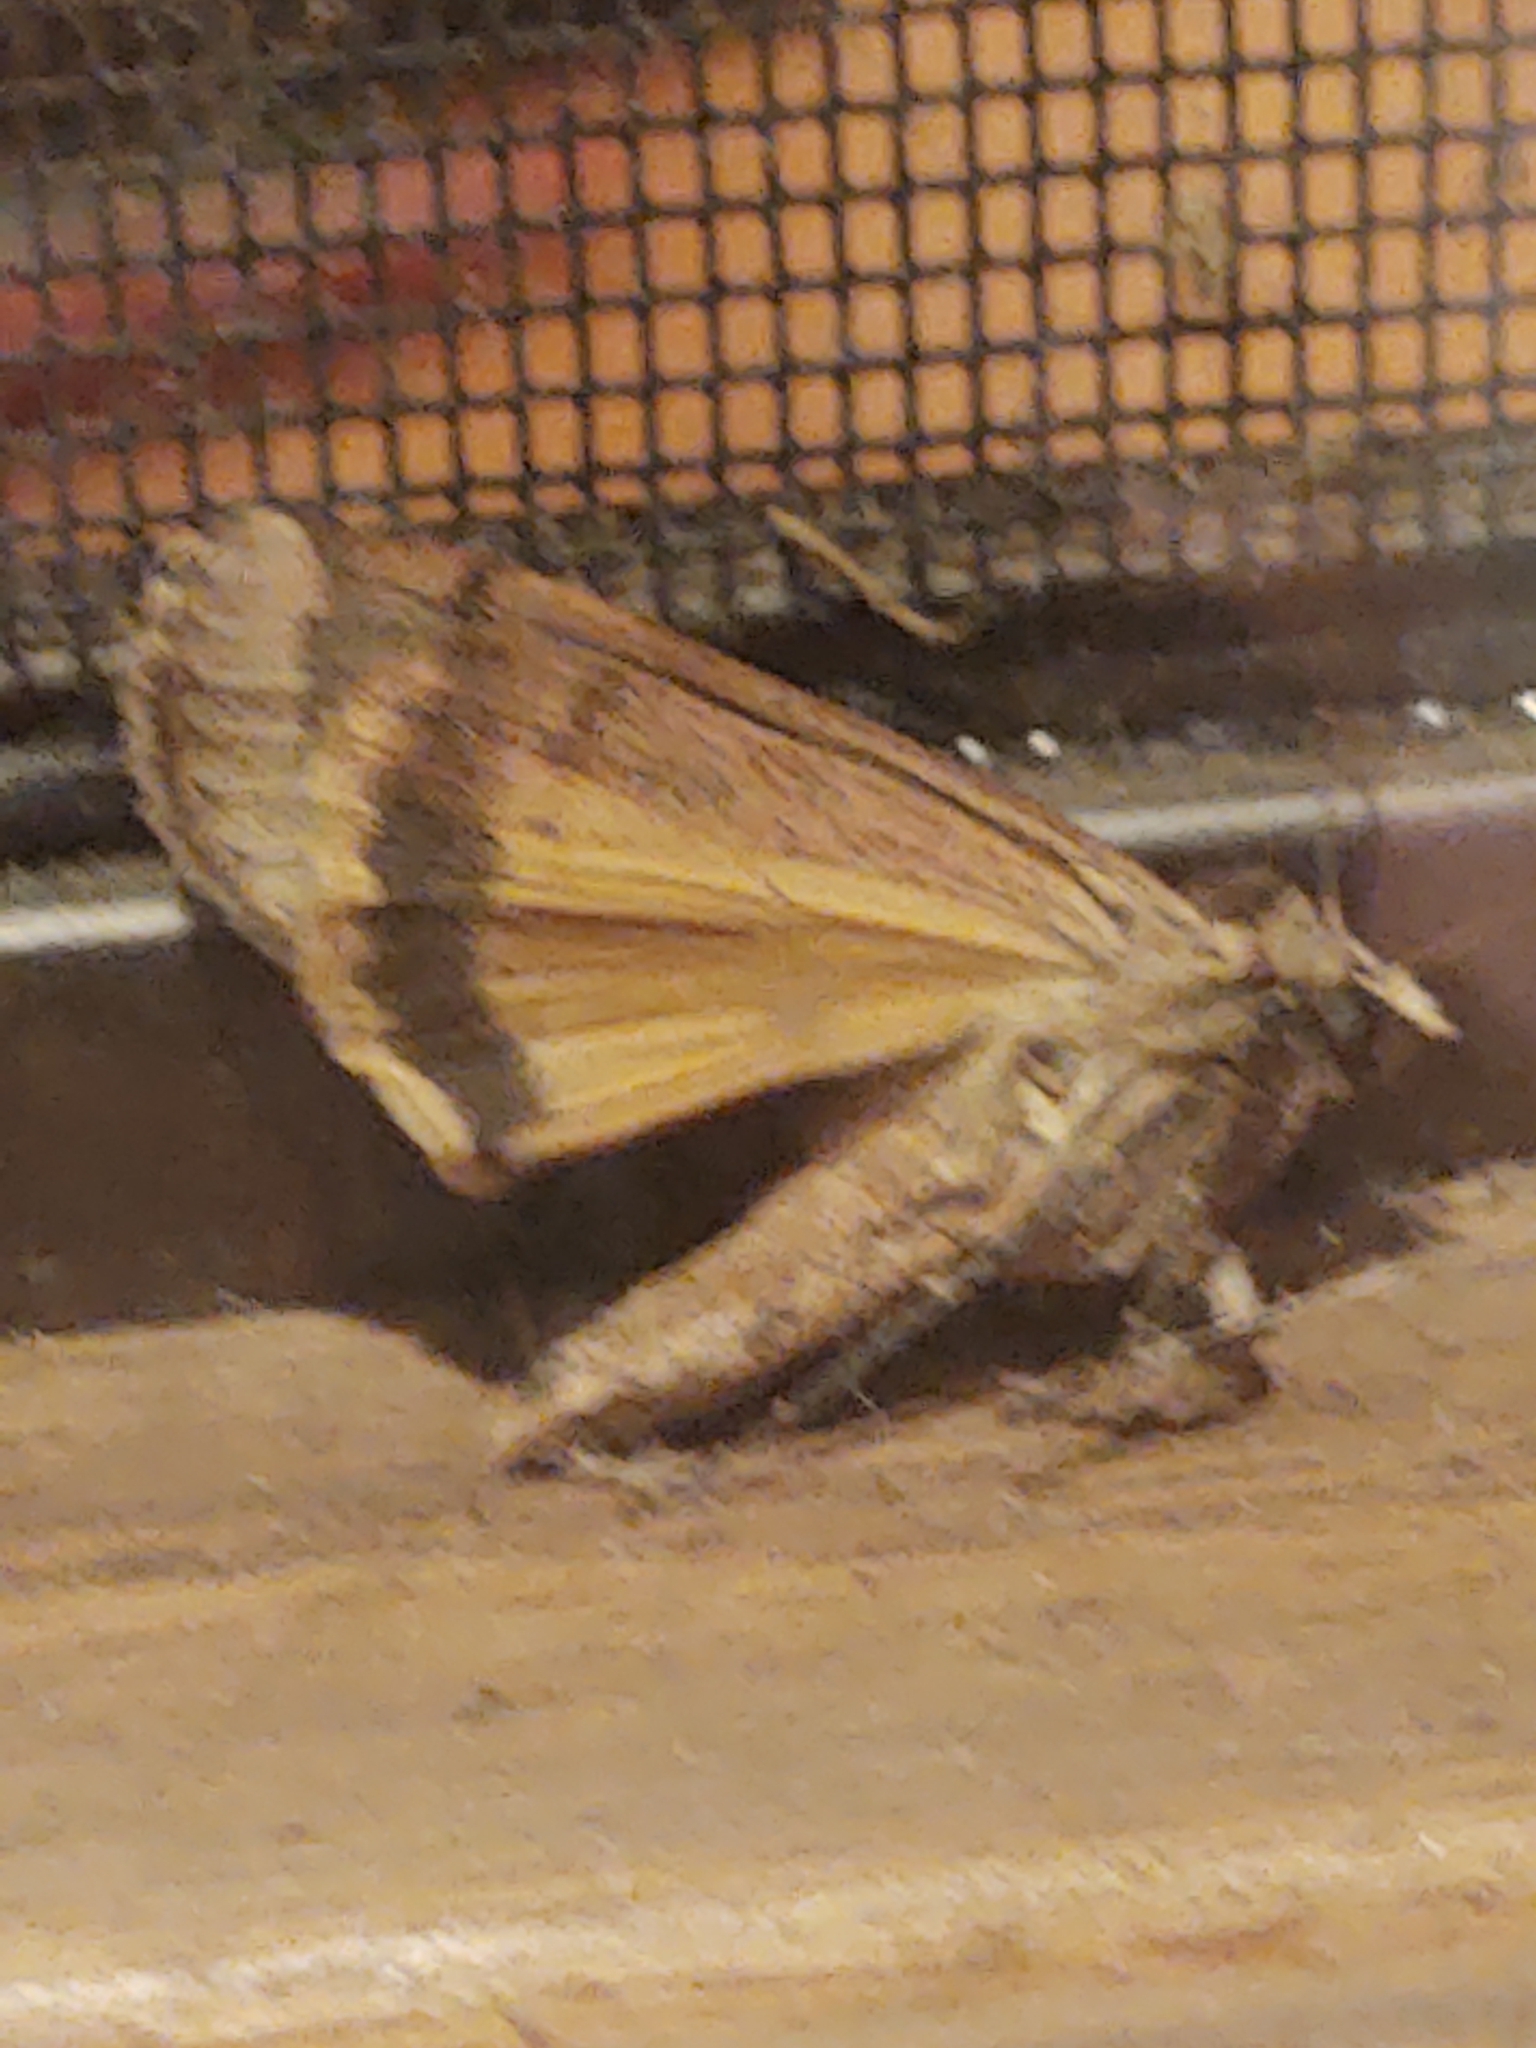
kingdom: Animalia
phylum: Arthropoda
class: Insecta
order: Lepidoptera
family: Noctuidae
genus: Noctua
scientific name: Noctua pronuba
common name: Large yellow underwing
